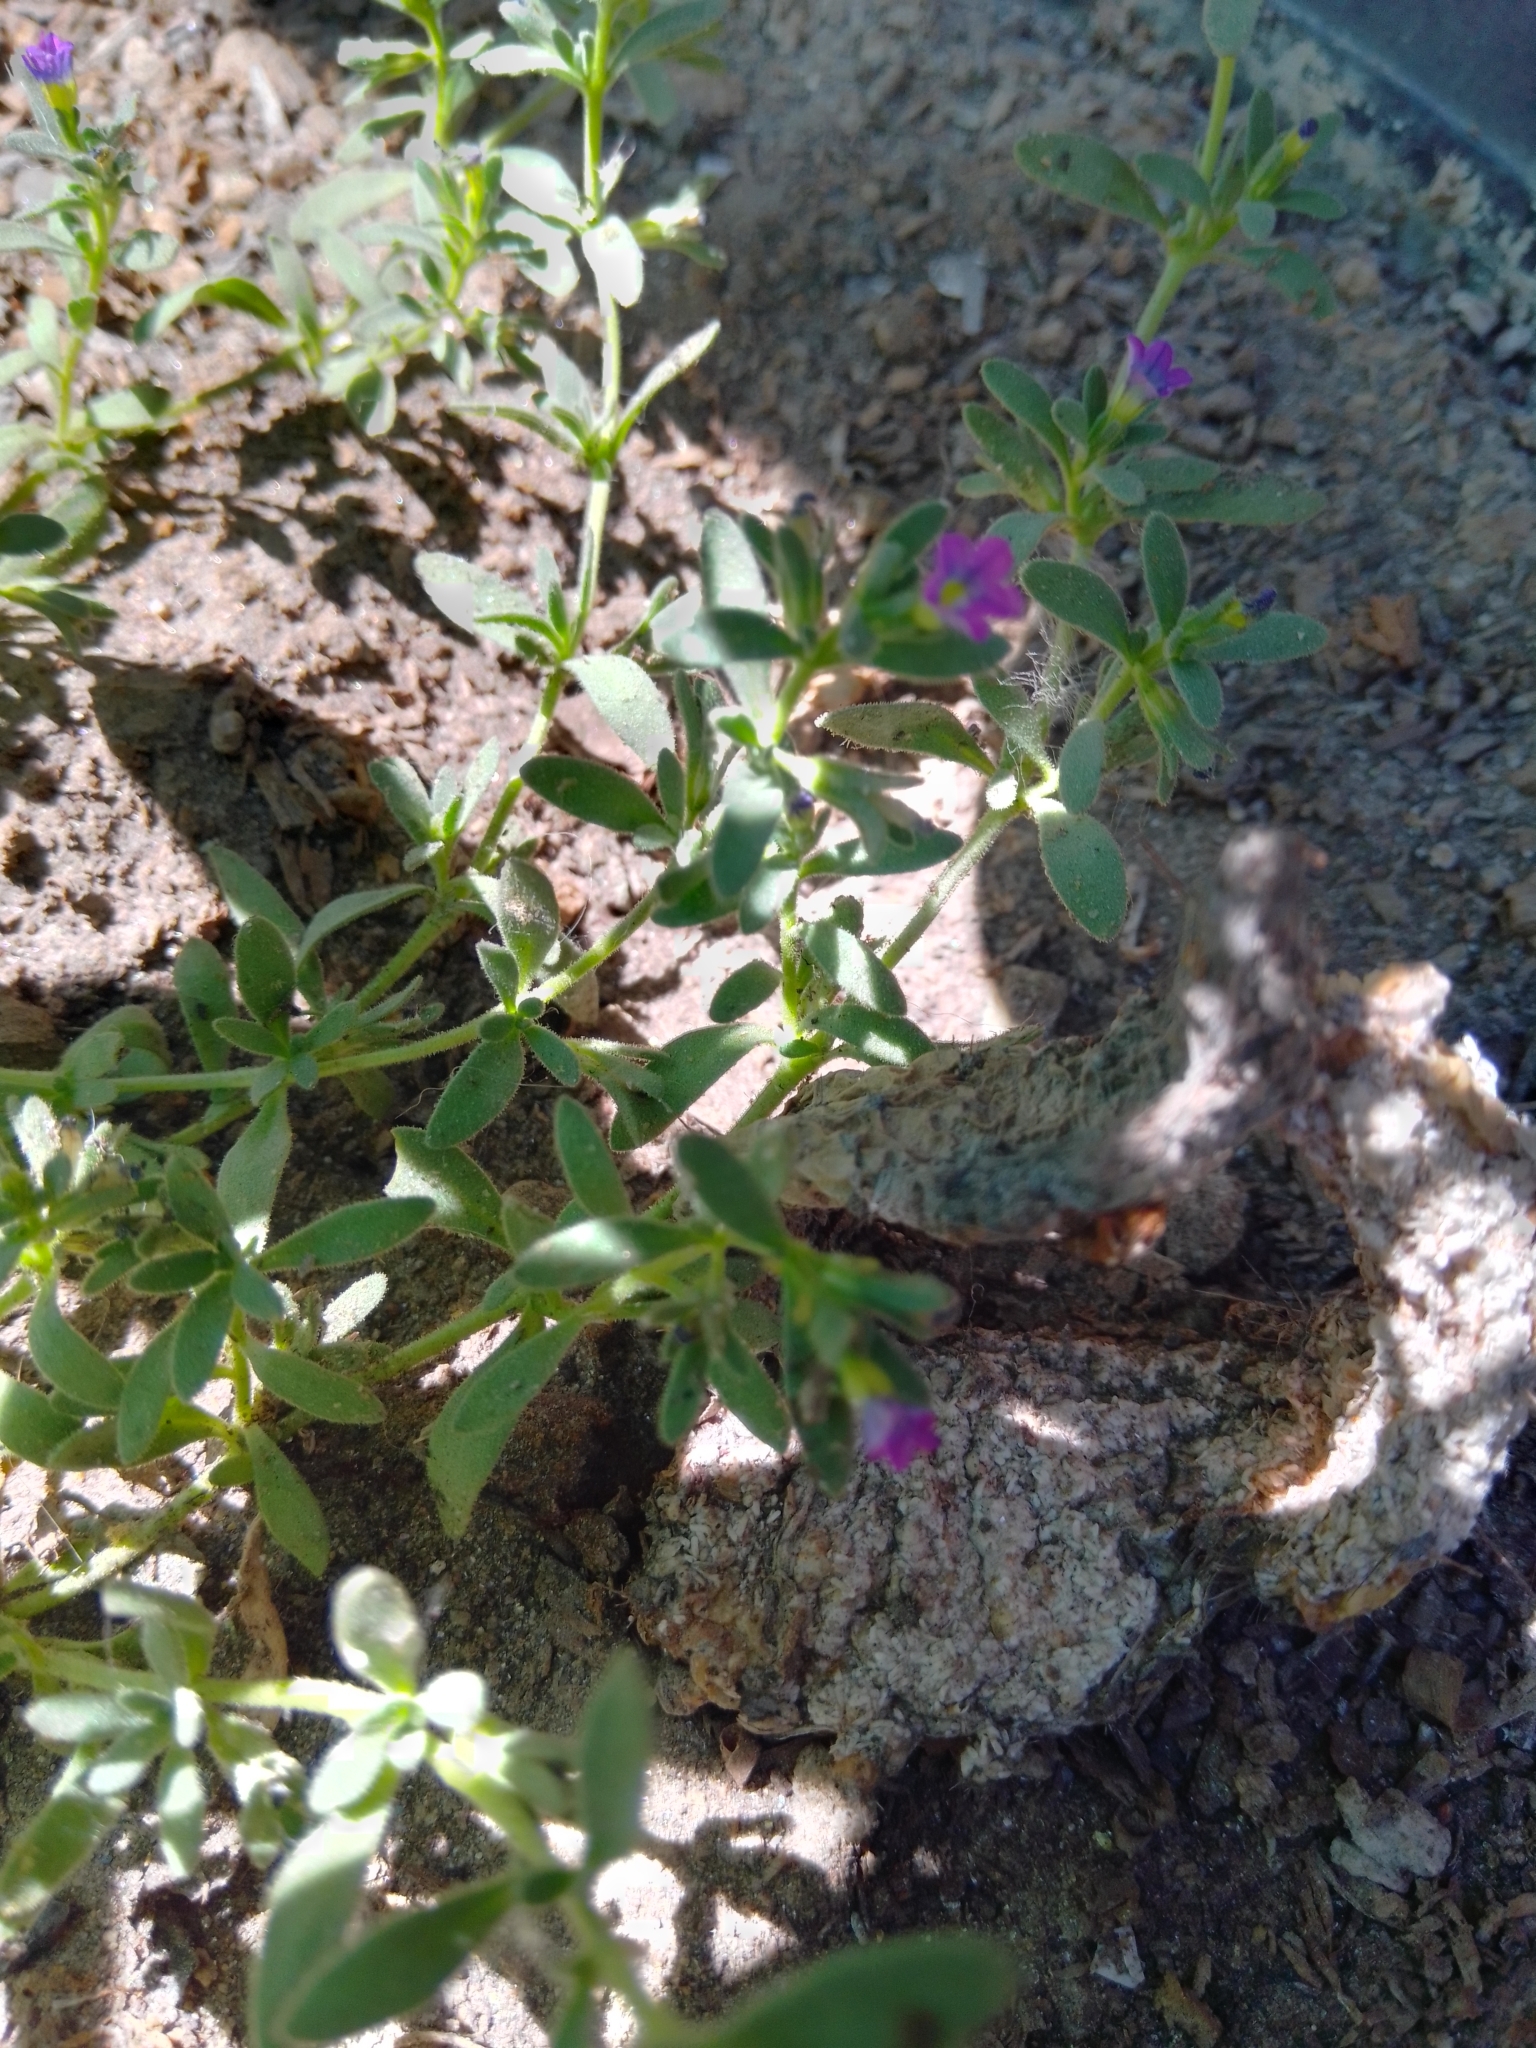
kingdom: Plantae
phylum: Tracheophyta
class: Magnoliopsida
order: Solanales
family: Solanaceae
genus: Calibrachoa
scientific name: Calibrachoa parviflora
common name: Seaside petunia
